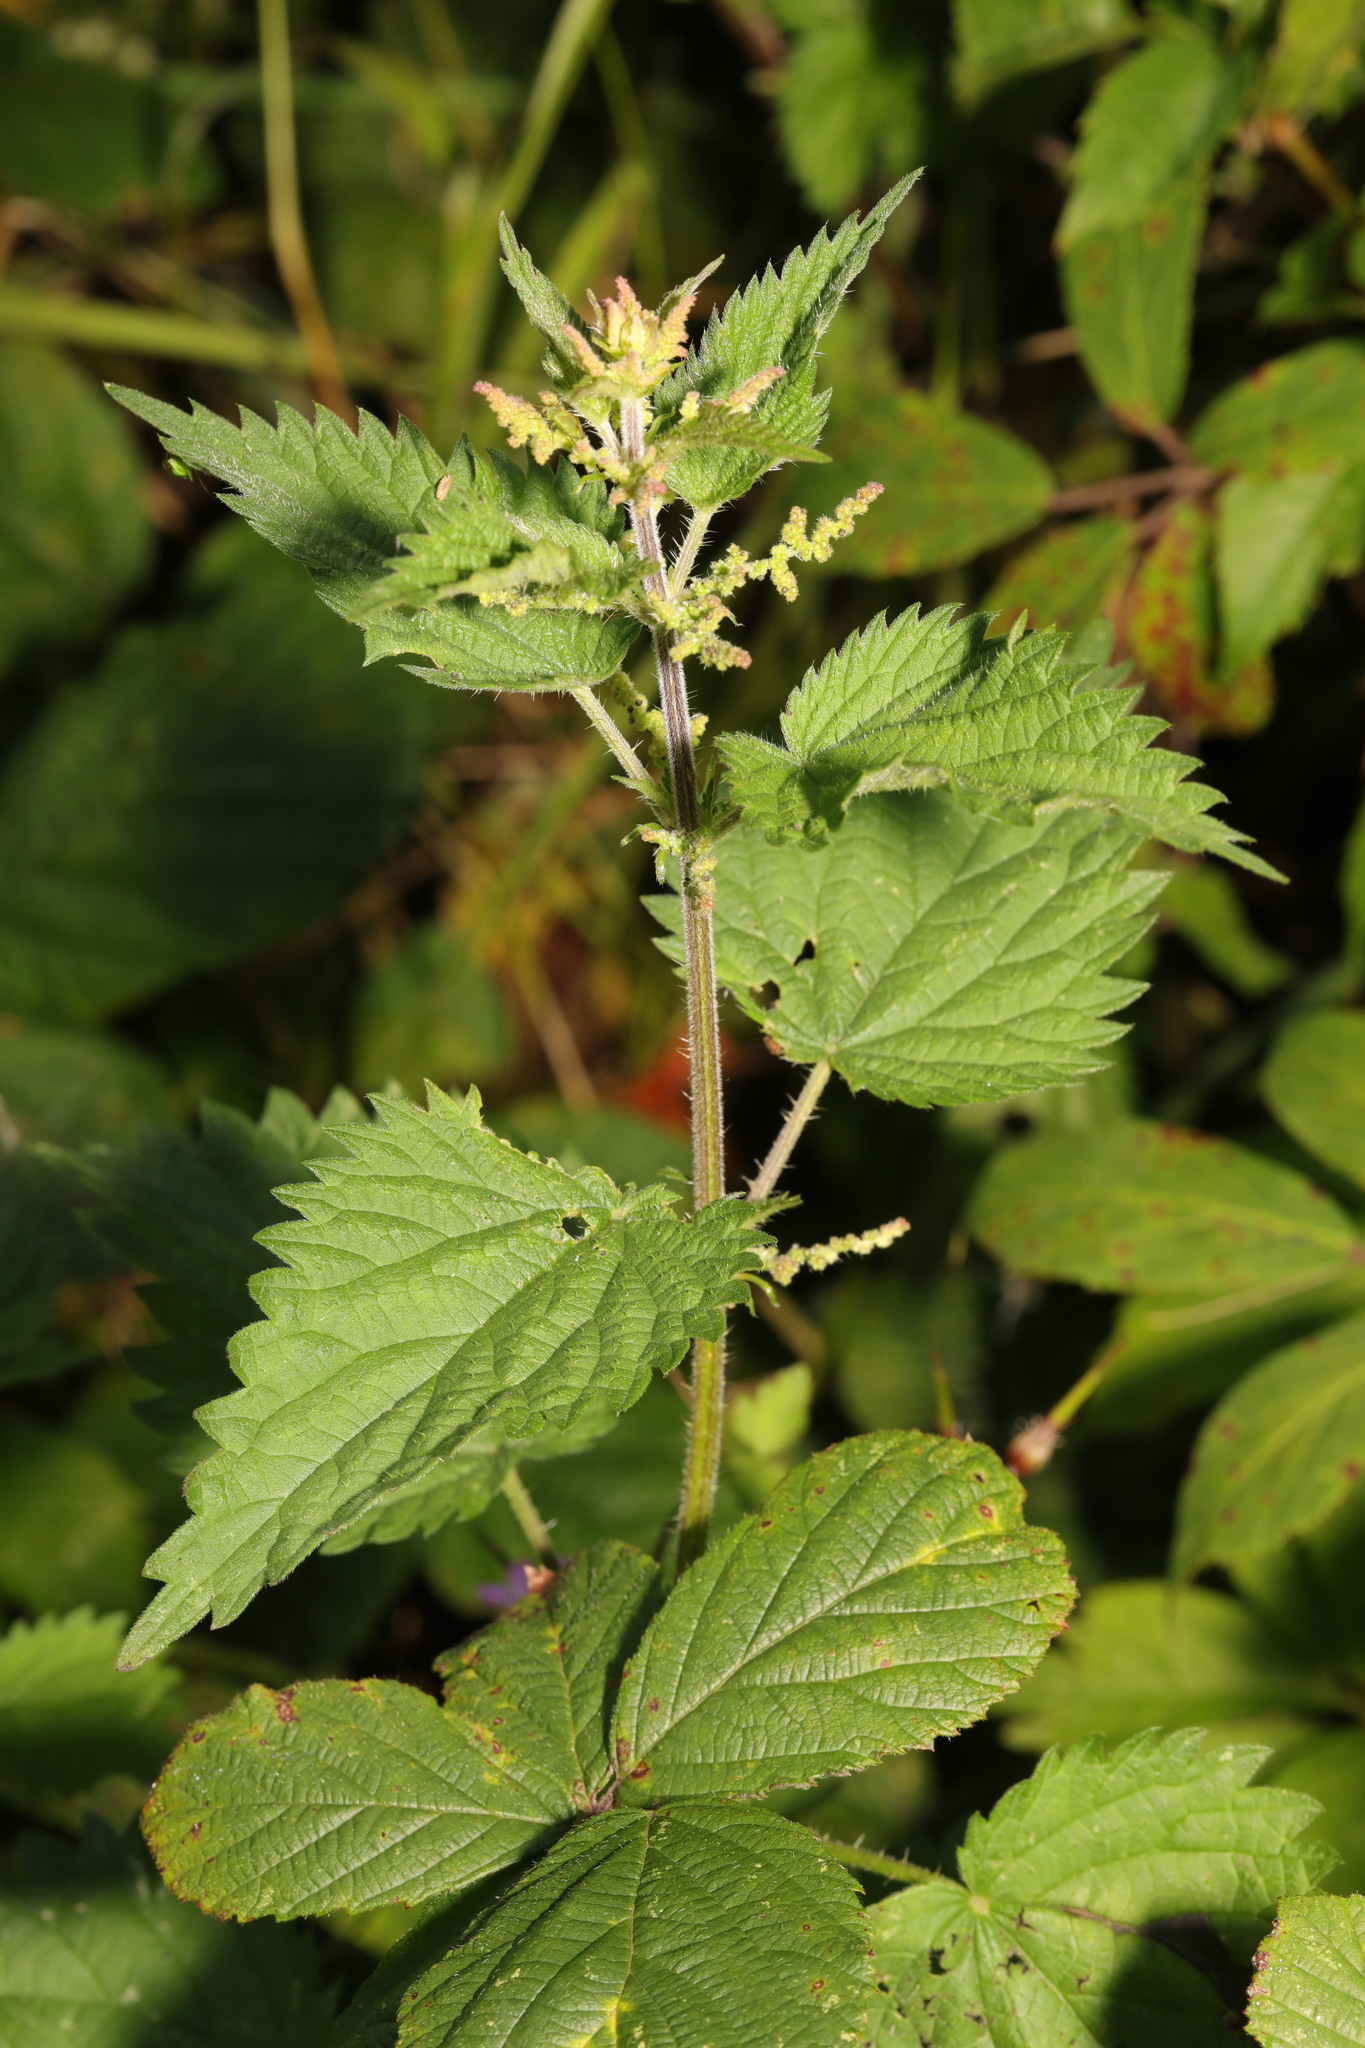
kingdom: Plantae
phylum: Tracheophyta
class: Magnoliopsida
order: Rosales
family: Urticaceae
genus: Urtica
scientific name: Urtica dioica
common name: Common nettle
